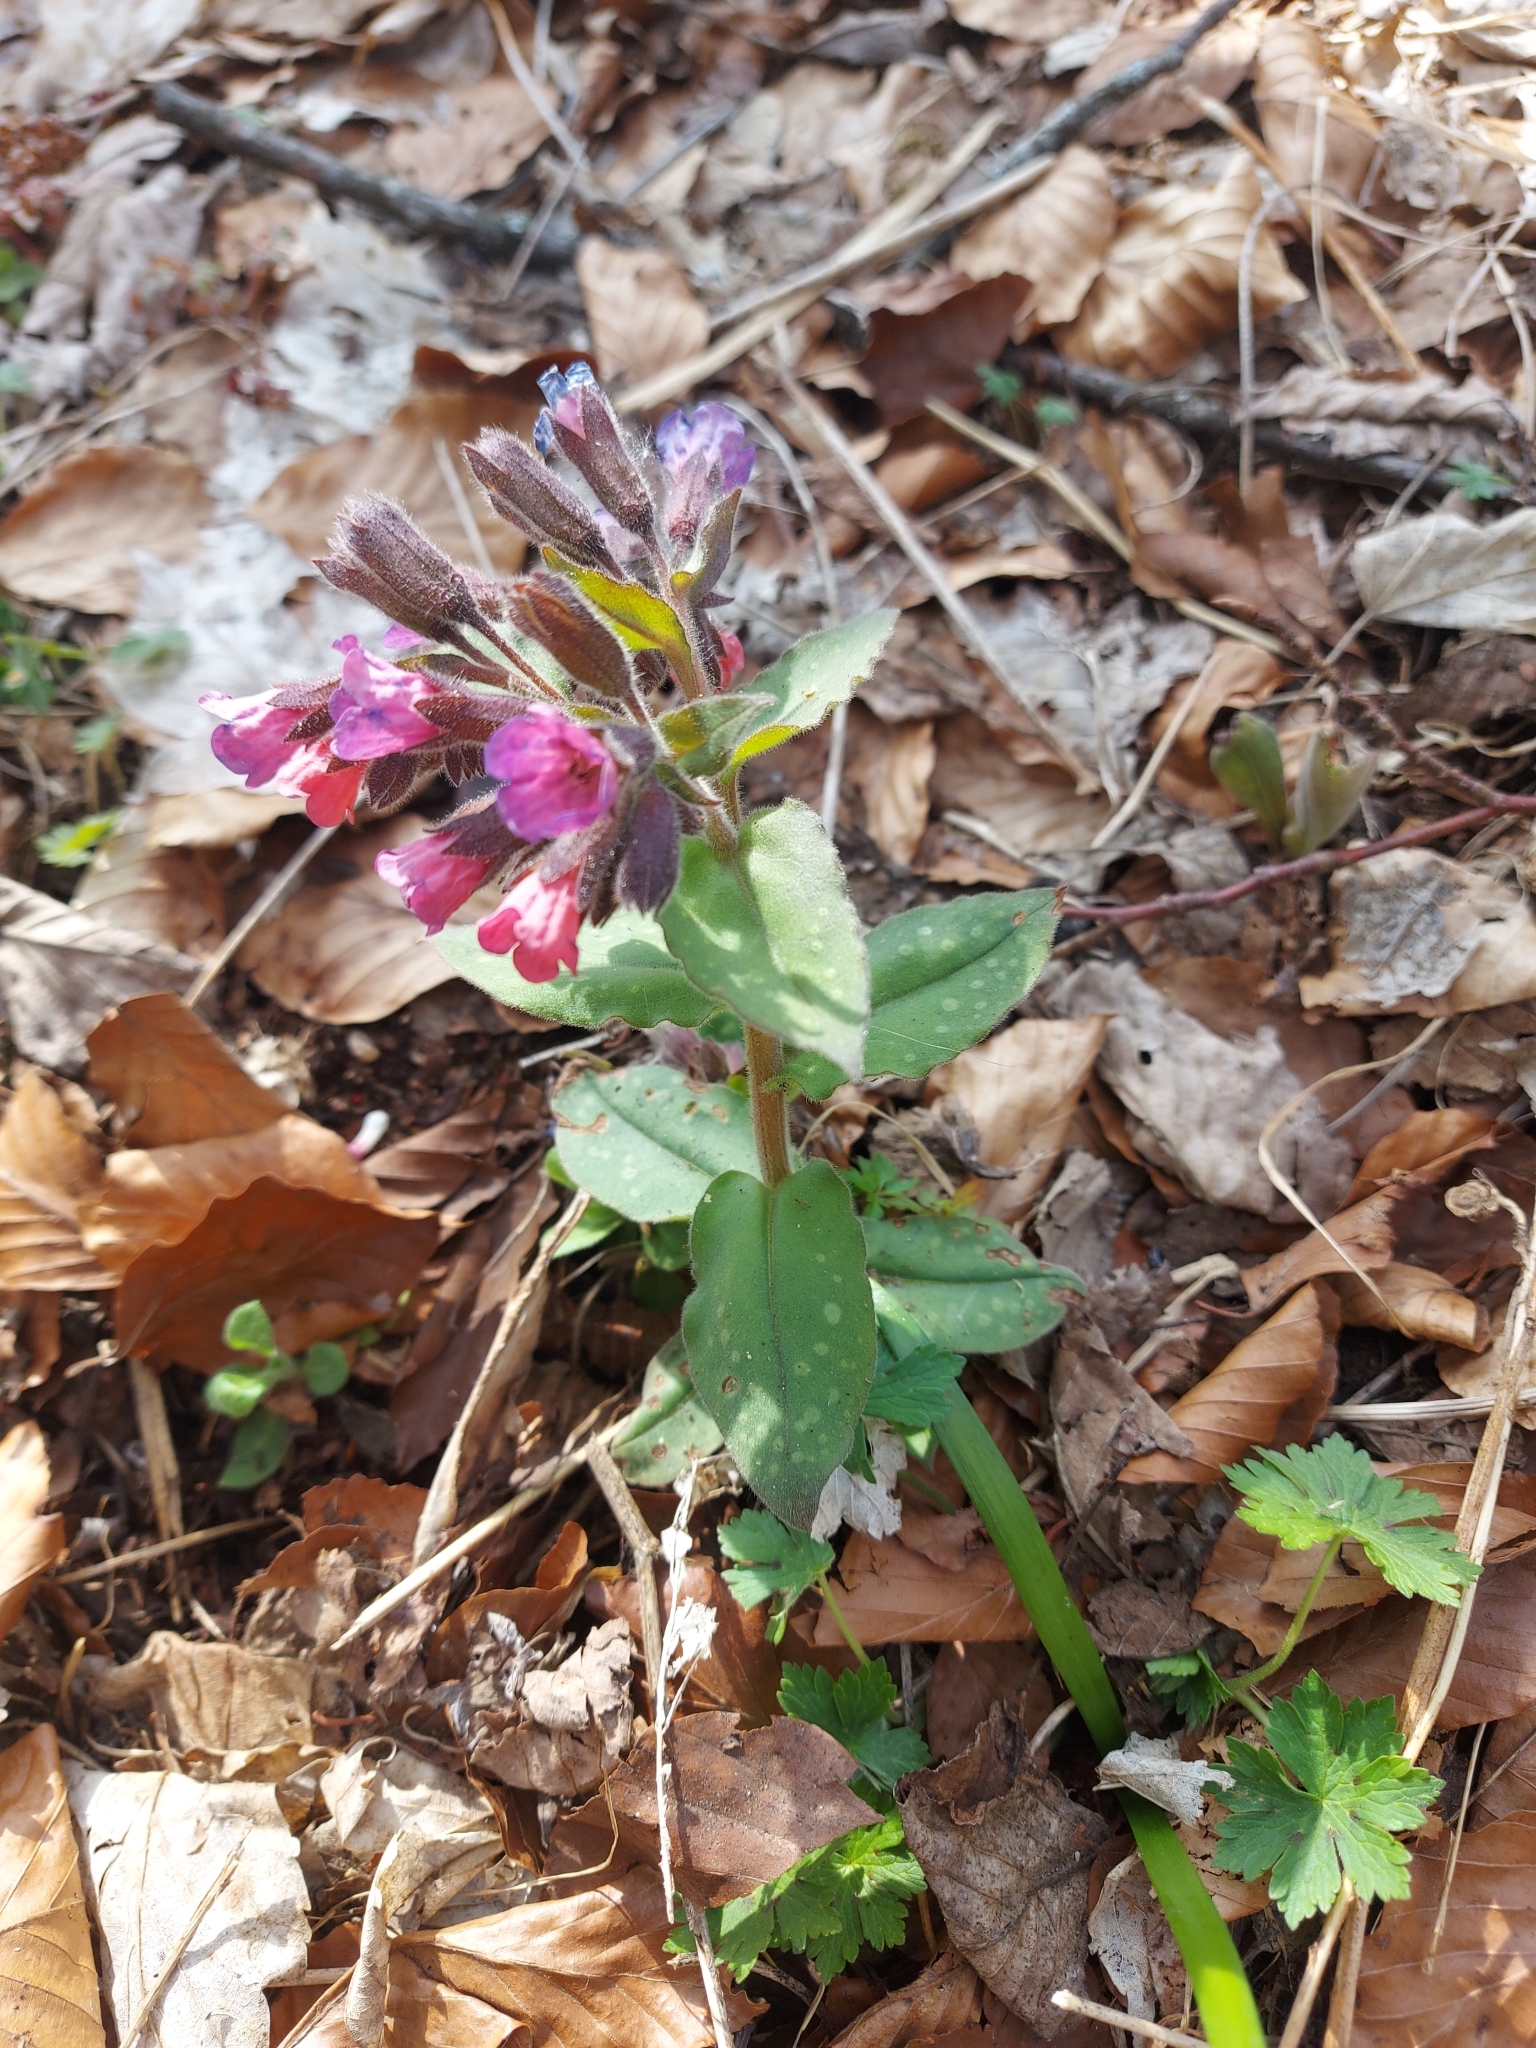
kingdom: Plantae
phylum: Tracheophyta
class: Magnoliopsida
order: Boraginales
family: Boraginaceae
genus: Pulmonaria
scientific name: Pulmonaria hirta
